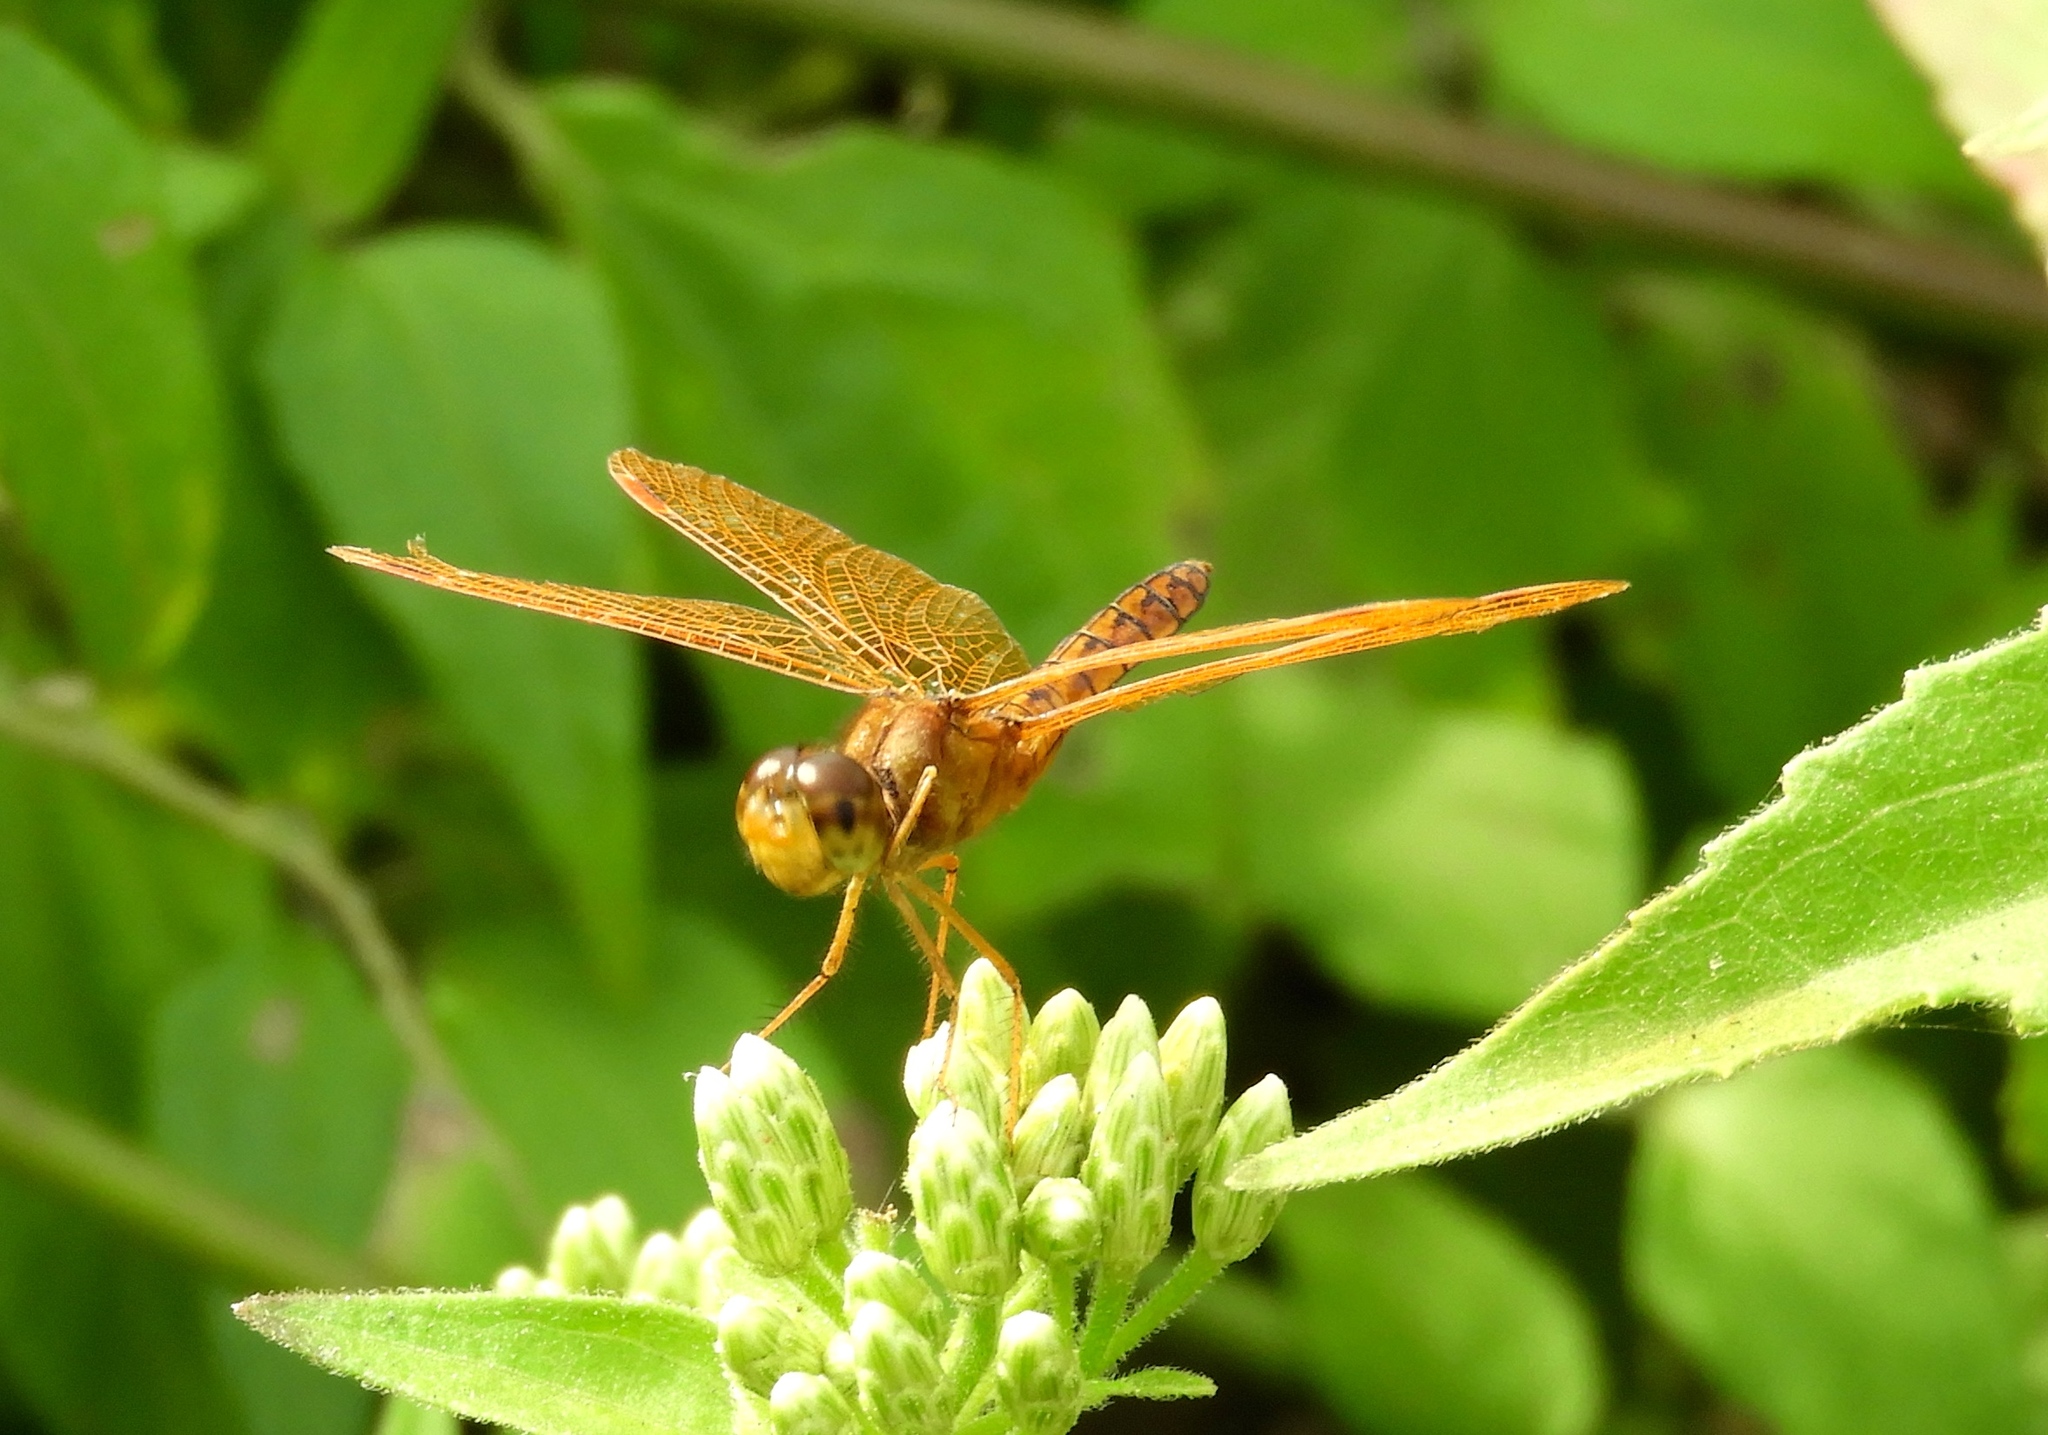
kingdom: Animalia
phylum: Arthropoda
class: Insecta
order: Odonata
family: Libellulidae
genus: Perithemis
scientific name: Perithemis intensa
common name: Mexican amberwing
